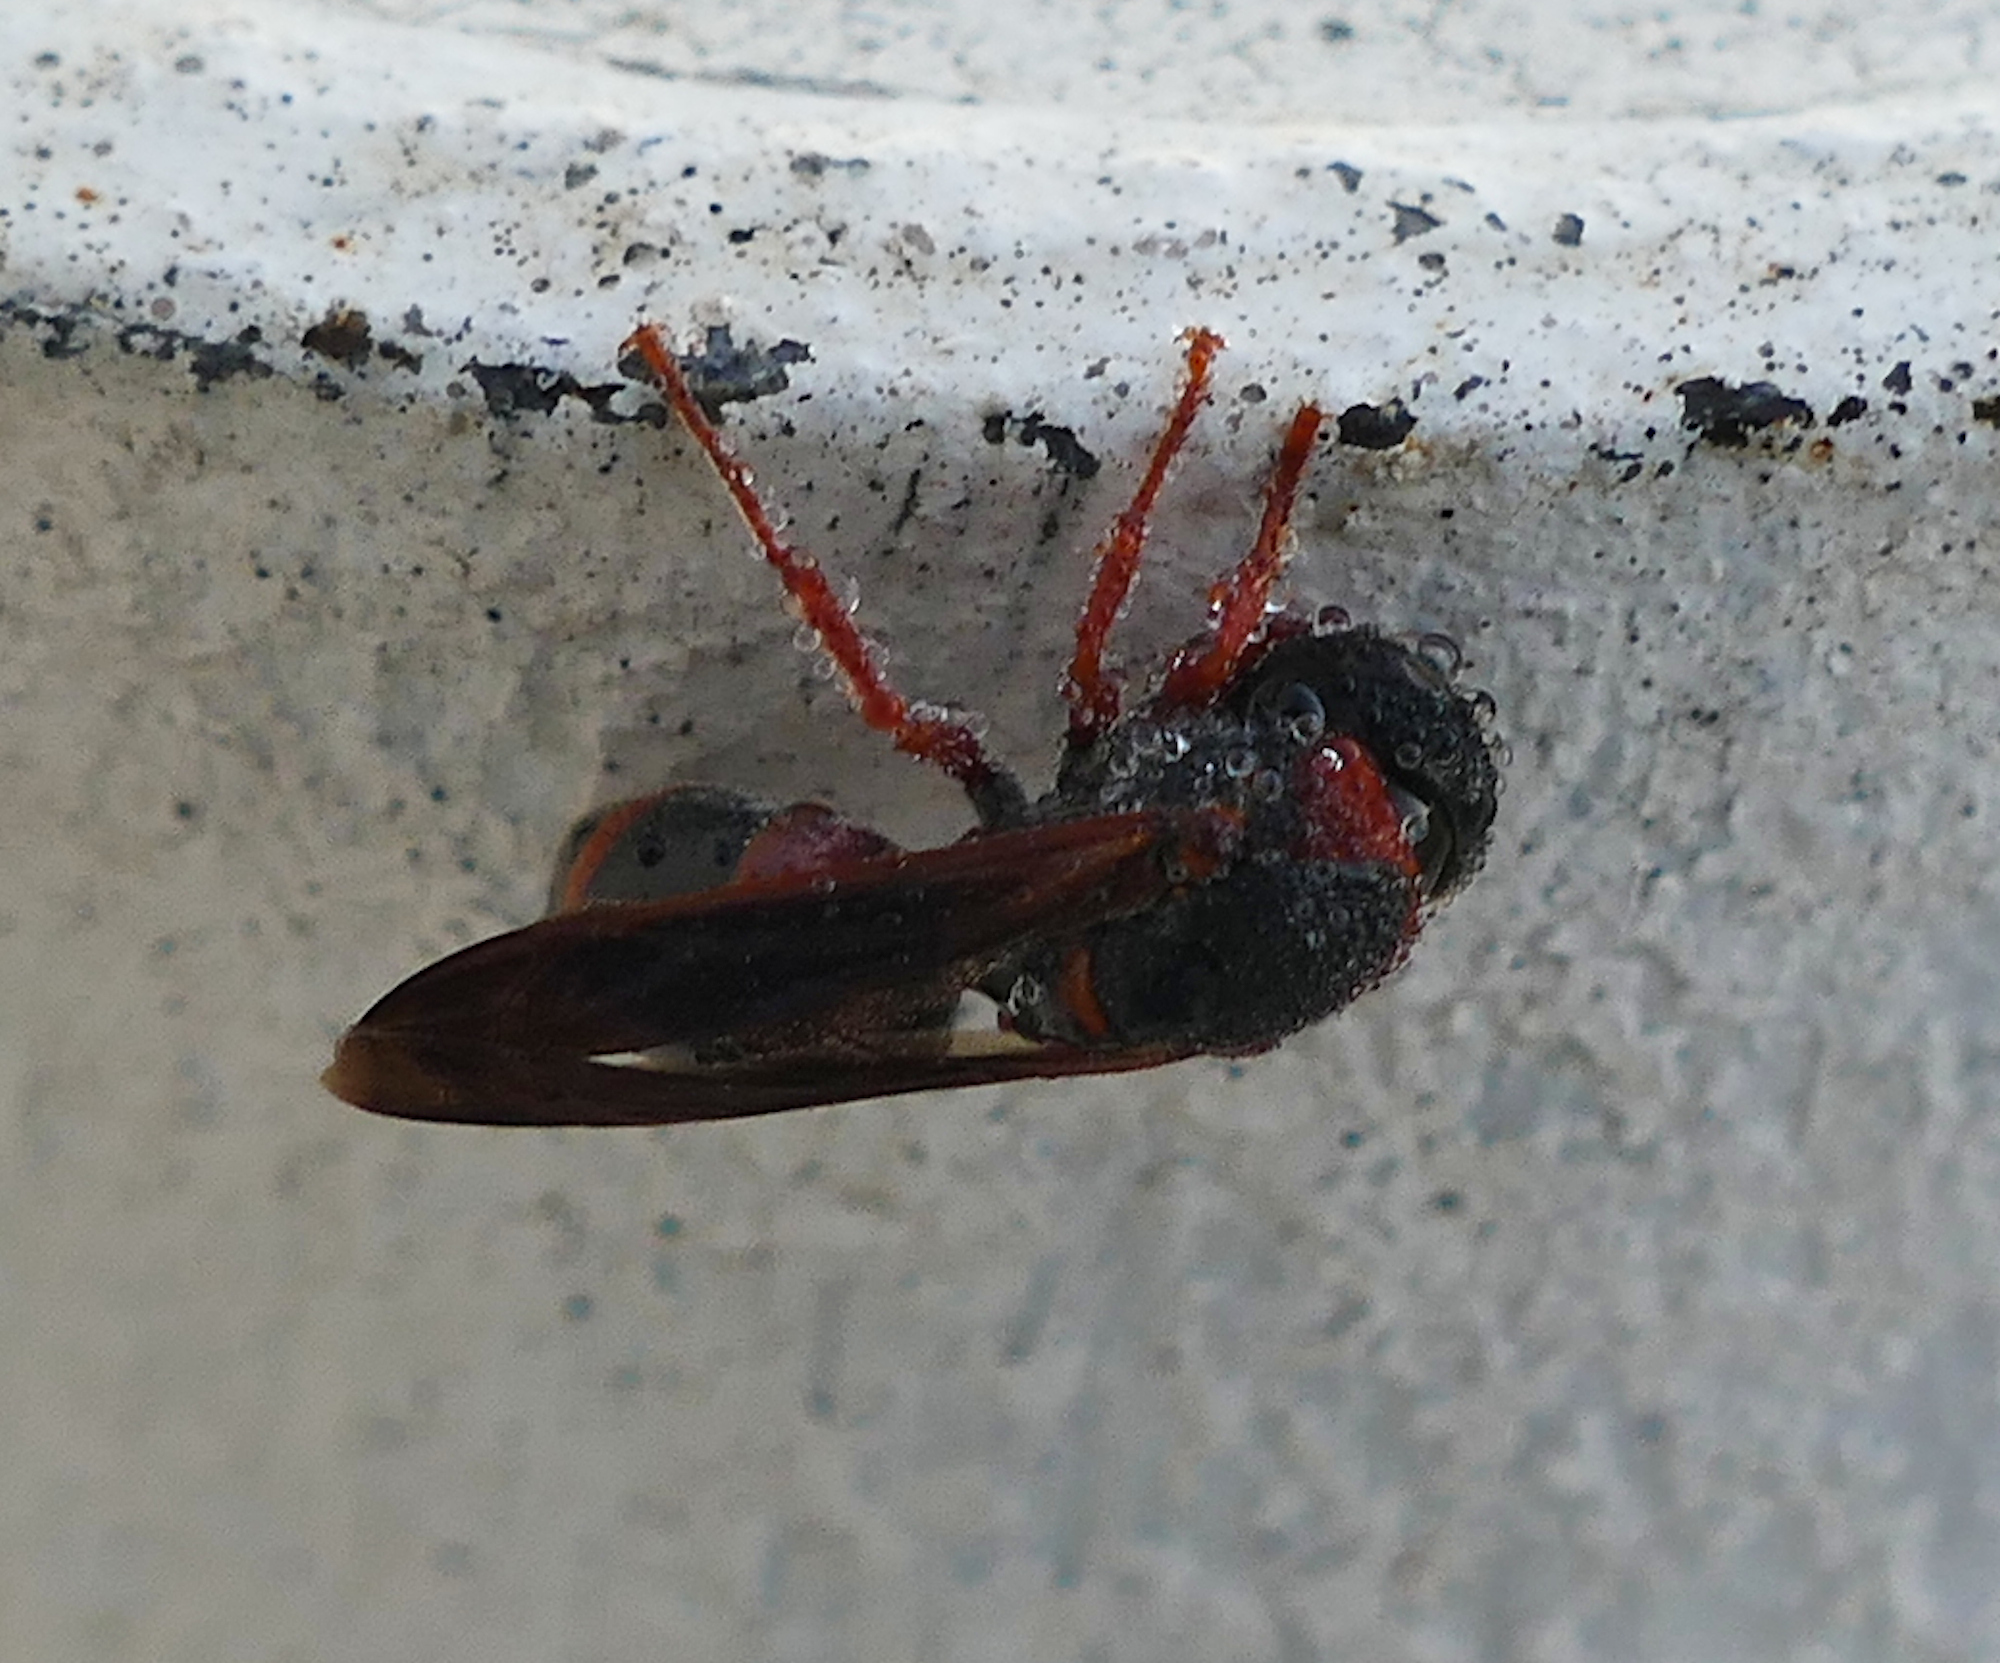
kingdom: Animalia
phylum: Arthropoda
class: Insecta
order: Hymenoptera
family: Eumenidae
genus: Pachodynerus
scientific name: Pachodynerus erynnis
